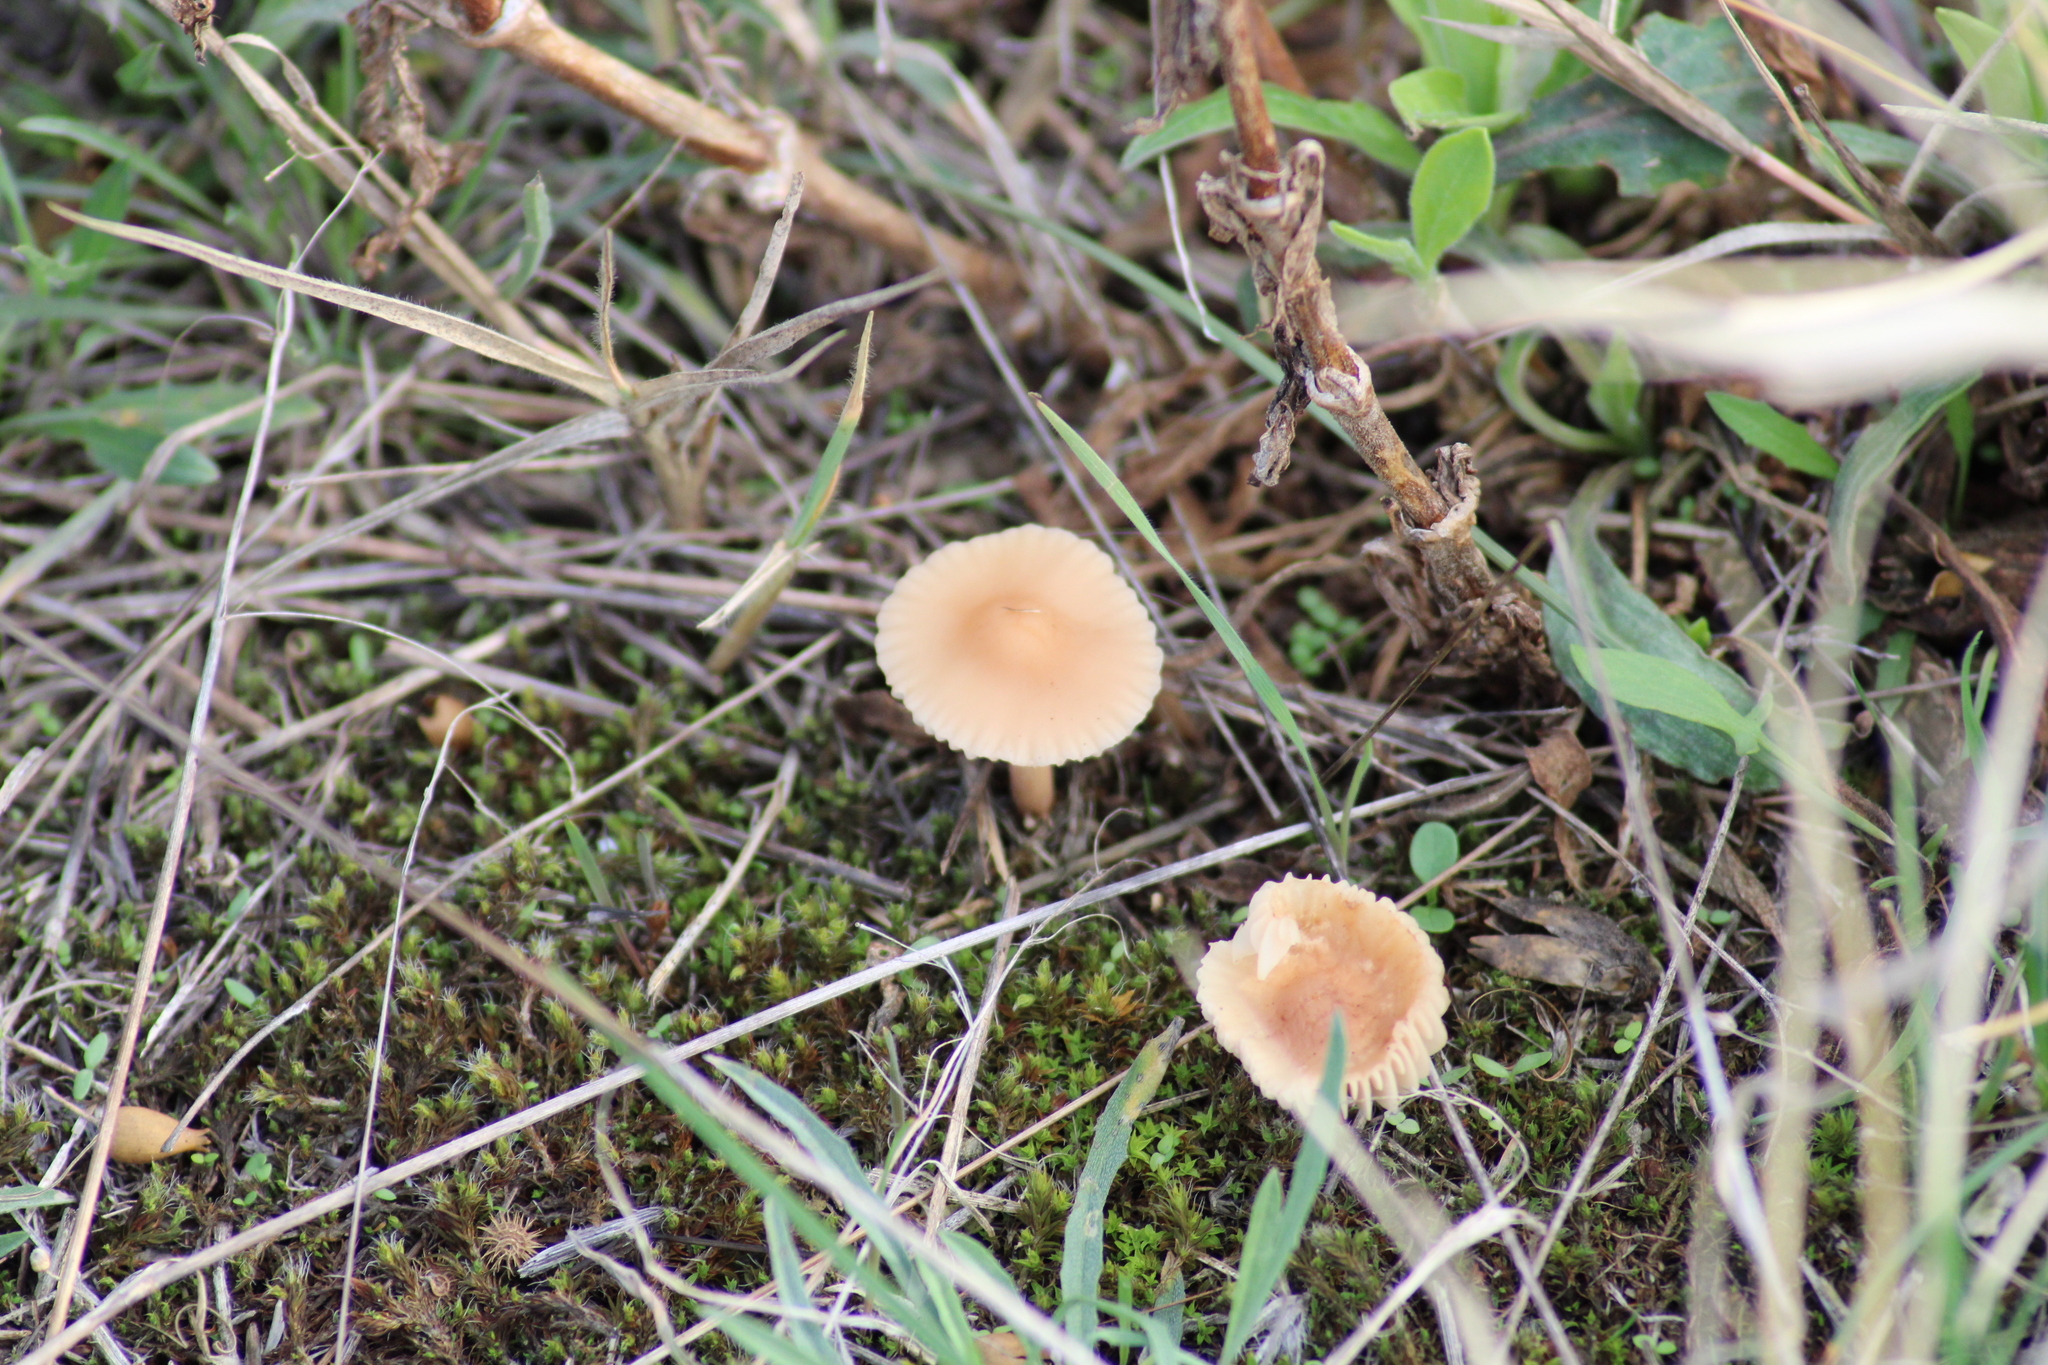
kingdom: Fungi
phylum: Basidiomycota
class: Agaricomycetes
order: Agaricales
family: Marasmiaceae
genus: Marasmius
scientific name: Marasmius oreades
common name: Fairy ring champignon
